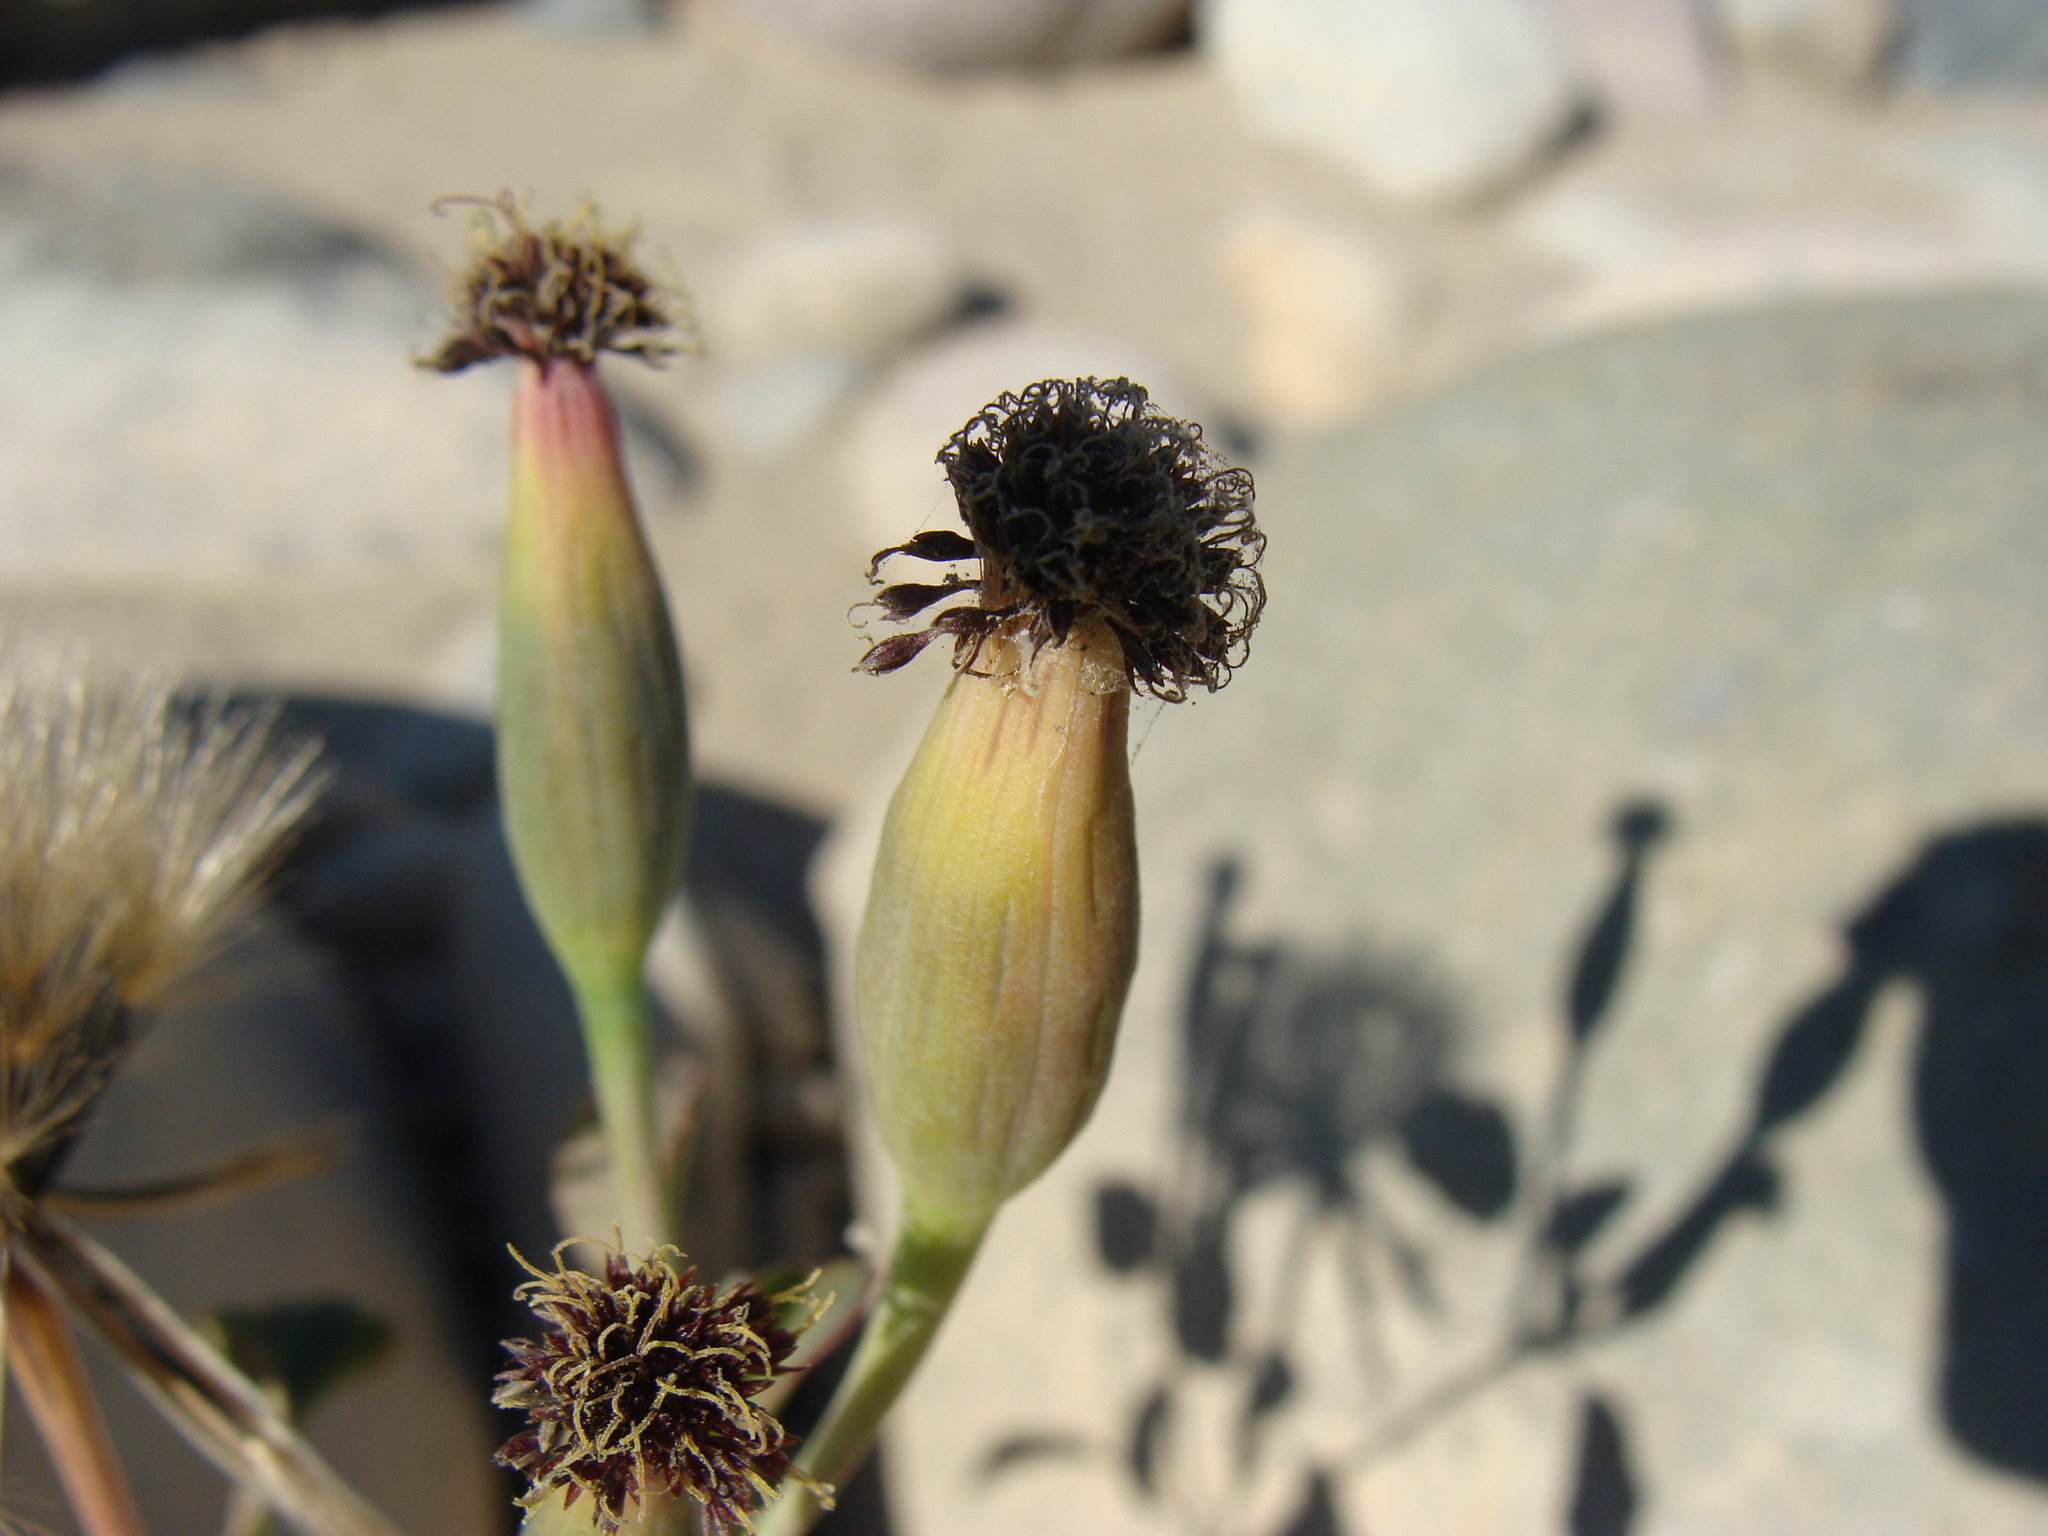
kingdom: Plantae
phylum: Tracheophyta
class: Magnoliopsida
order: Asterales
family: Asteraceae
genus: Porophyllum
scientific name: Porophyllum ruderale
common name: Yerba porosa
